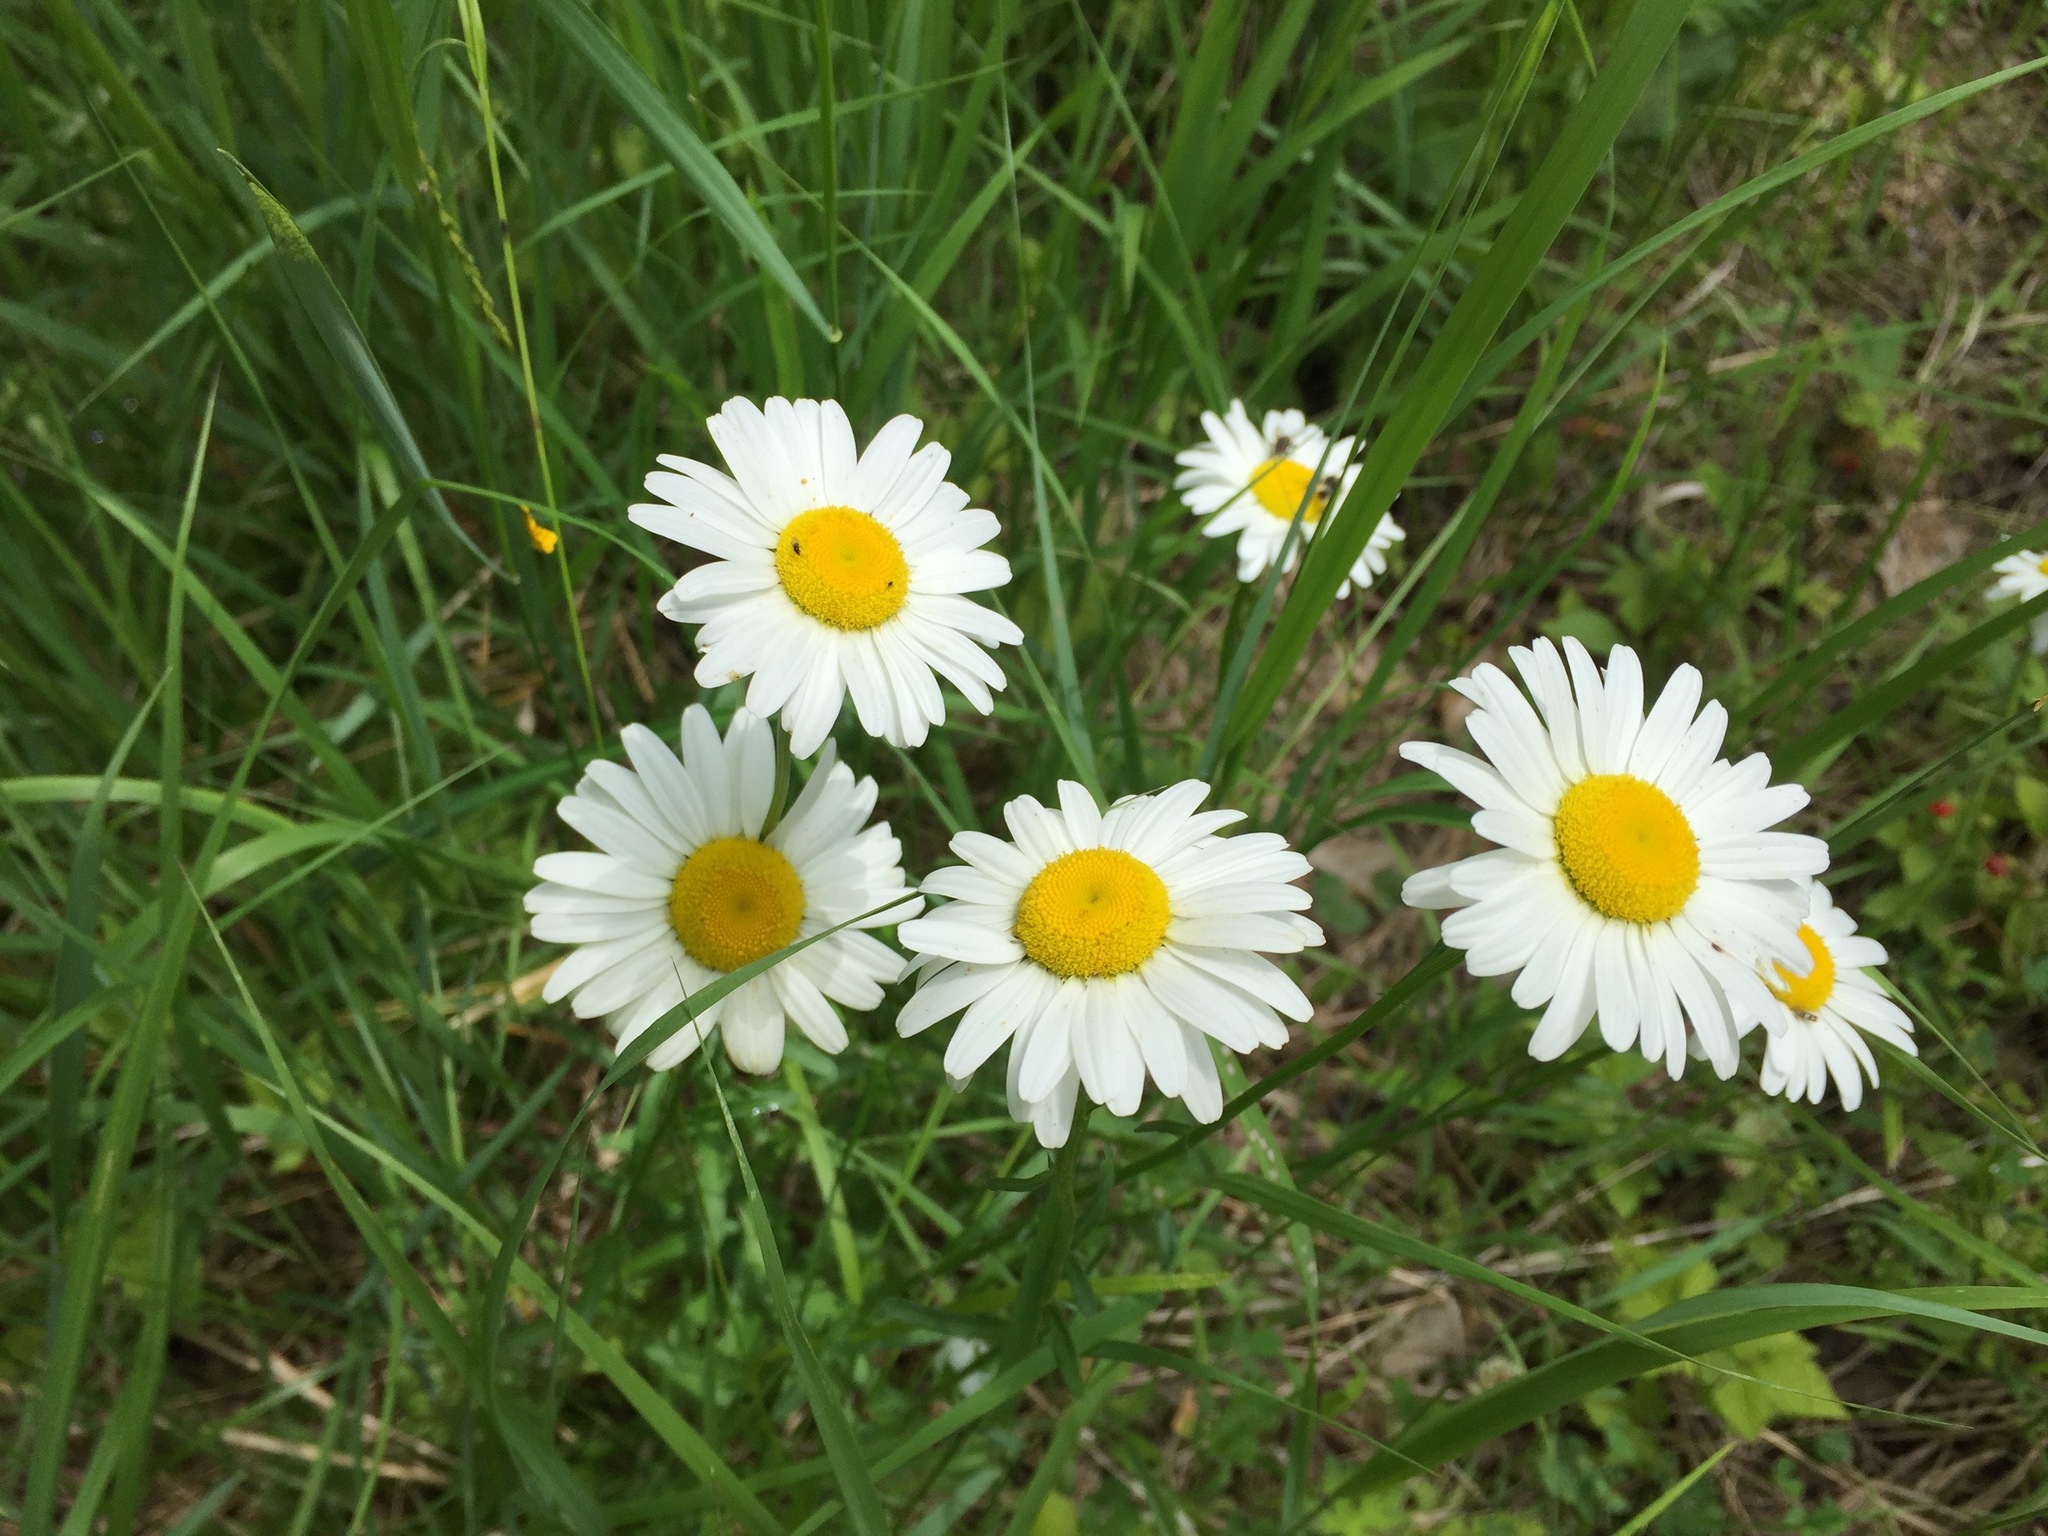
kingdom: Plantae
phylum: Tracheophyta
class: Magnoliopsida
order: Asterales
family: Asteraceae
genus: Leucanthemum
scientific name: Leucanthemum vulgare
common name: Oxeye daisy
